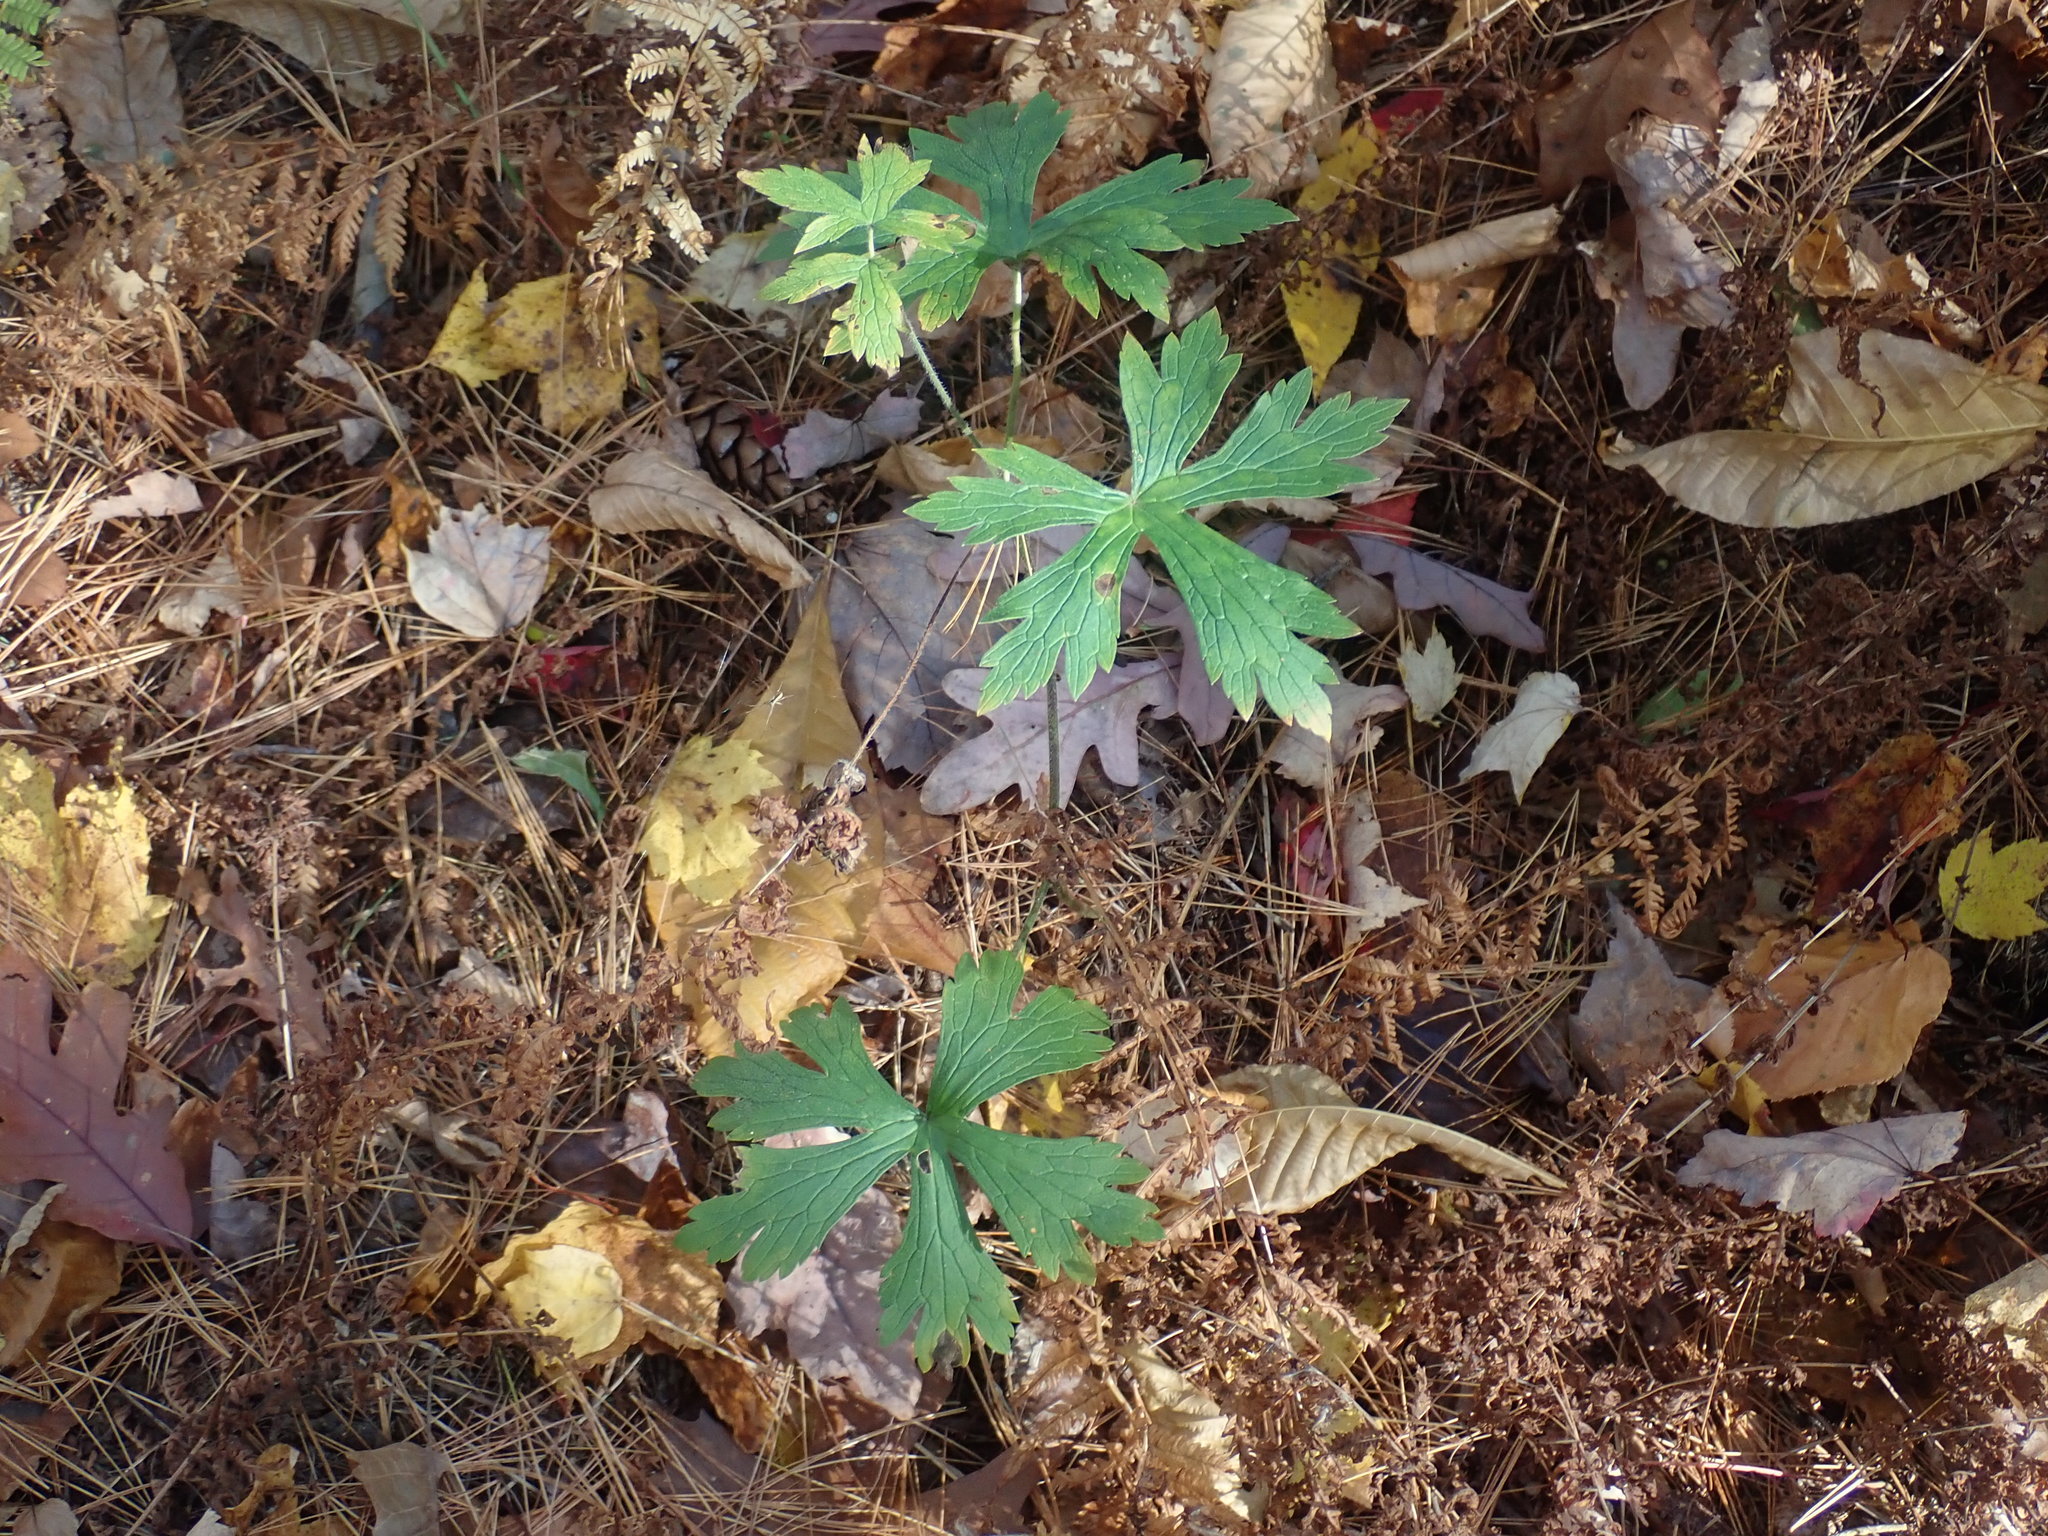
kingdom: Plantae
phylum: Tracheophyta
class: Magnoliopsida
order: Geraniales
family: Geraniaceae
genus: Geranium
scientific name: Geranium maculatum
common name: Spotted geranium
